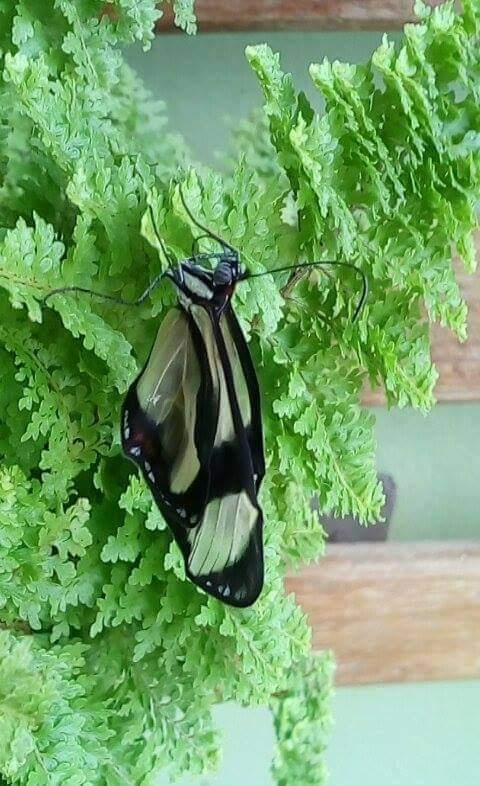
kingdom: Animalia
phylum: Arthropoda
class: Insecta
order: Lepidoptera
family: Nymphalidae
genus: Epityches
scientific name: Epityches eupompe
